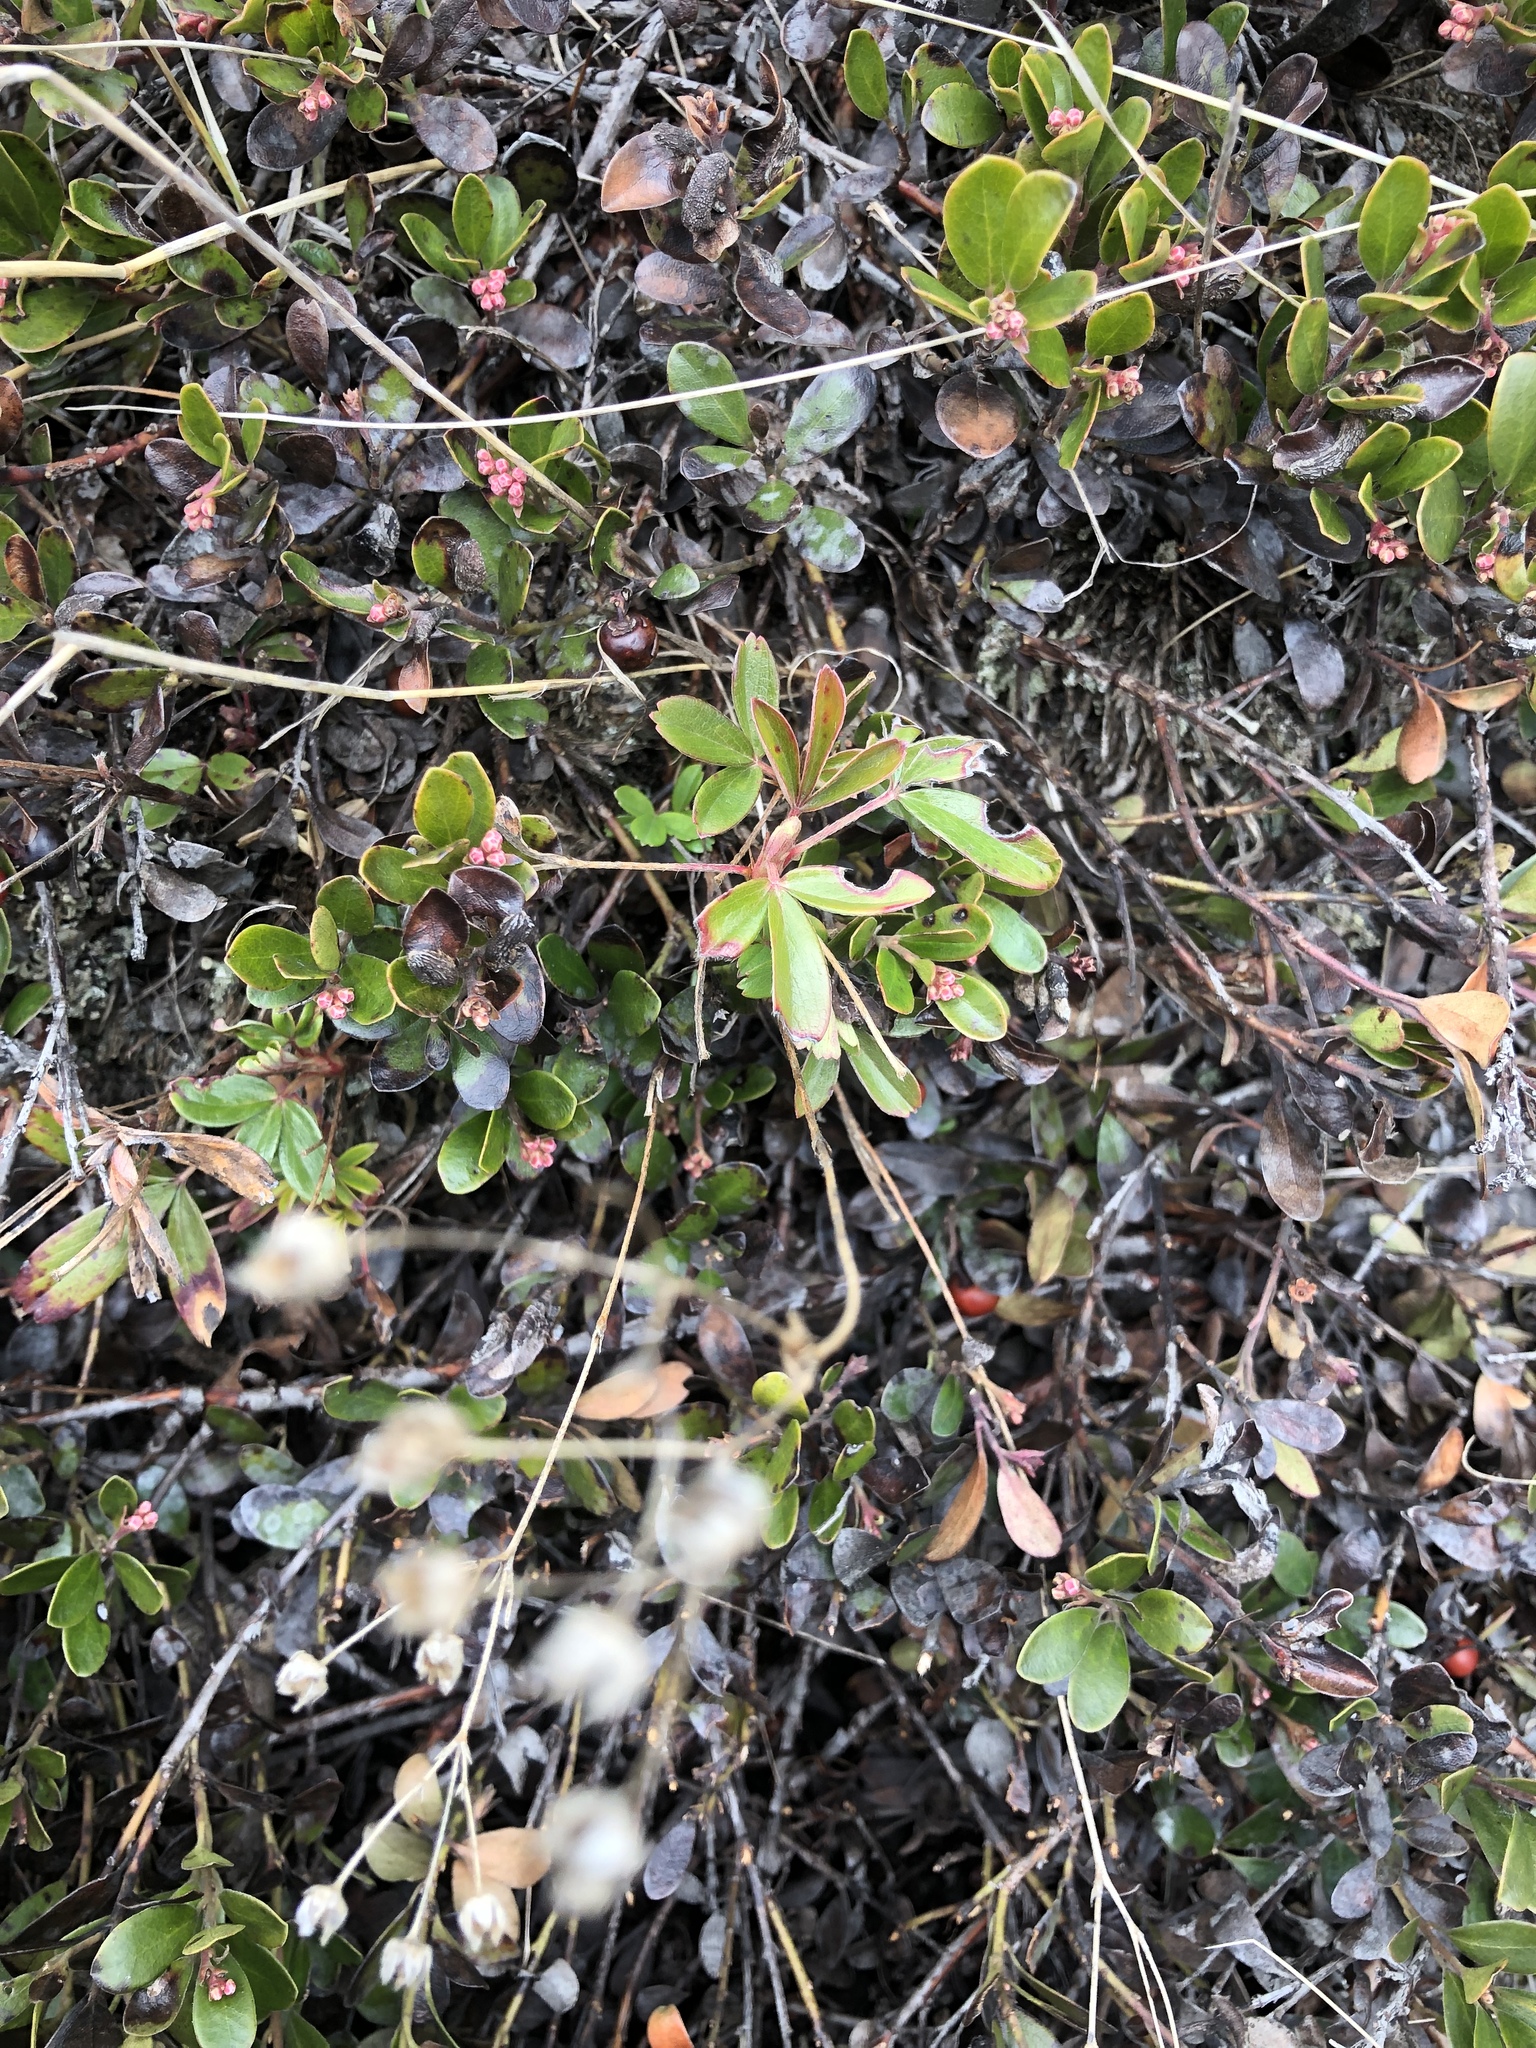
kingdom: Plantae
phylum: Tracheophyta
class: Magnoliopsida
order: Rosales
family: Rosaceae
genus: Sibbaldia
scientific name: Sibbaldia tridentata
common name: Three-toothed cinquefoil
